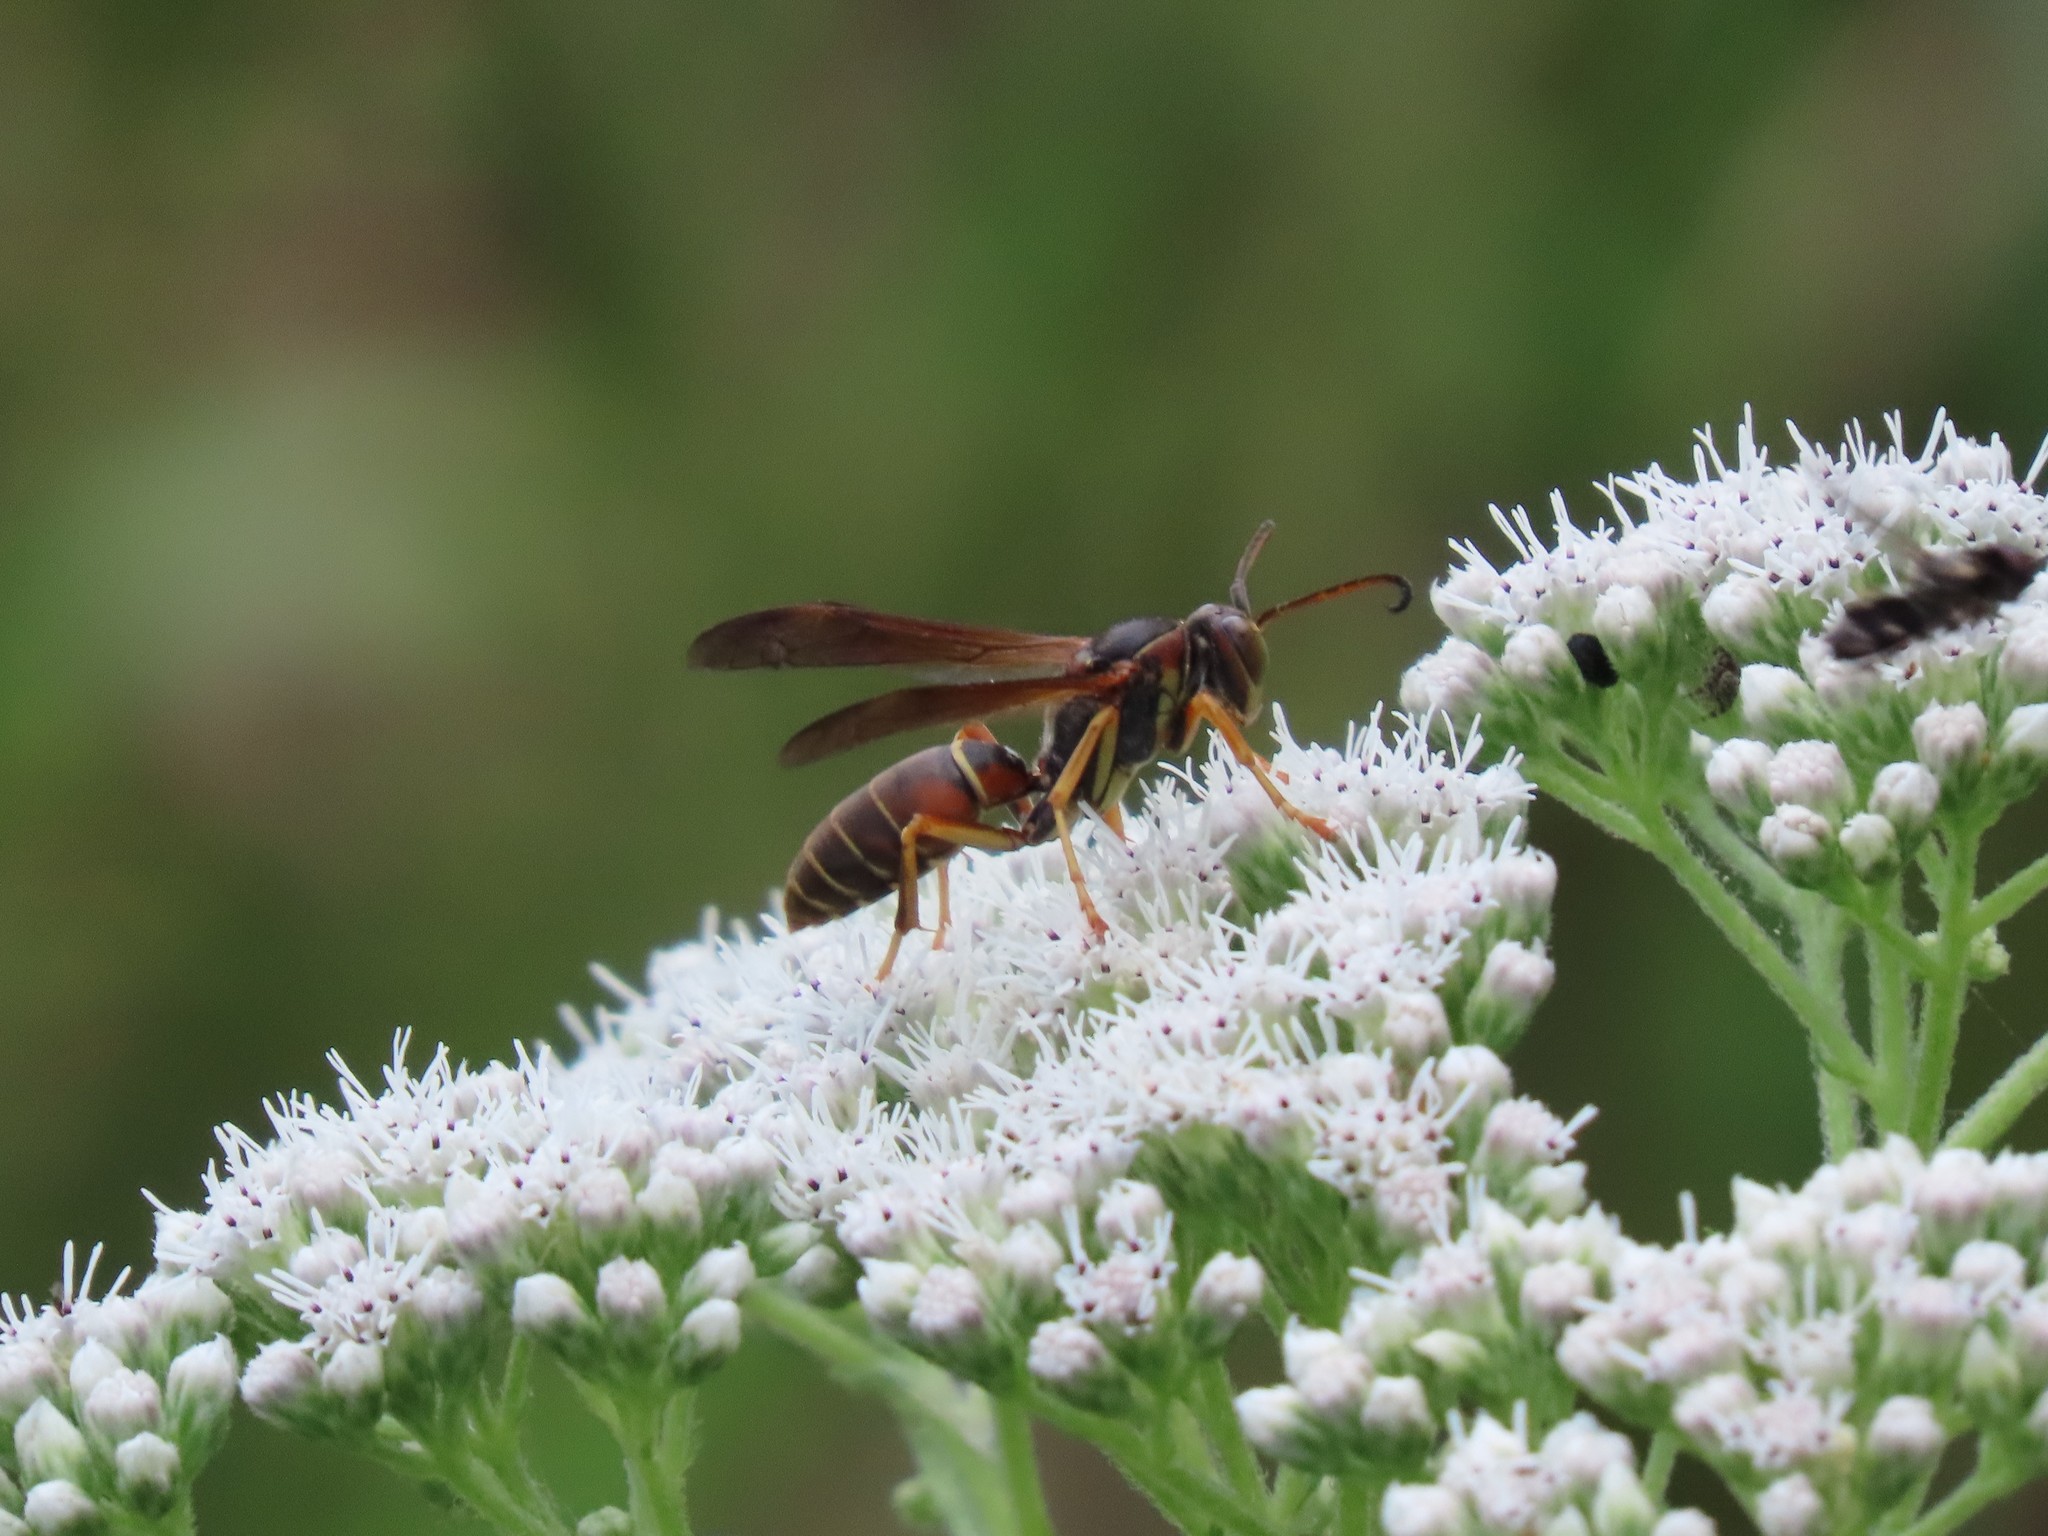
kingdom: Animalia
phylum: Arthropoda
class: Insecta
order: Hymenoptera
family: Eumenidae
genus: Polistes
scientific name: Polistes fuscatus
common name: Dark paper wasp
